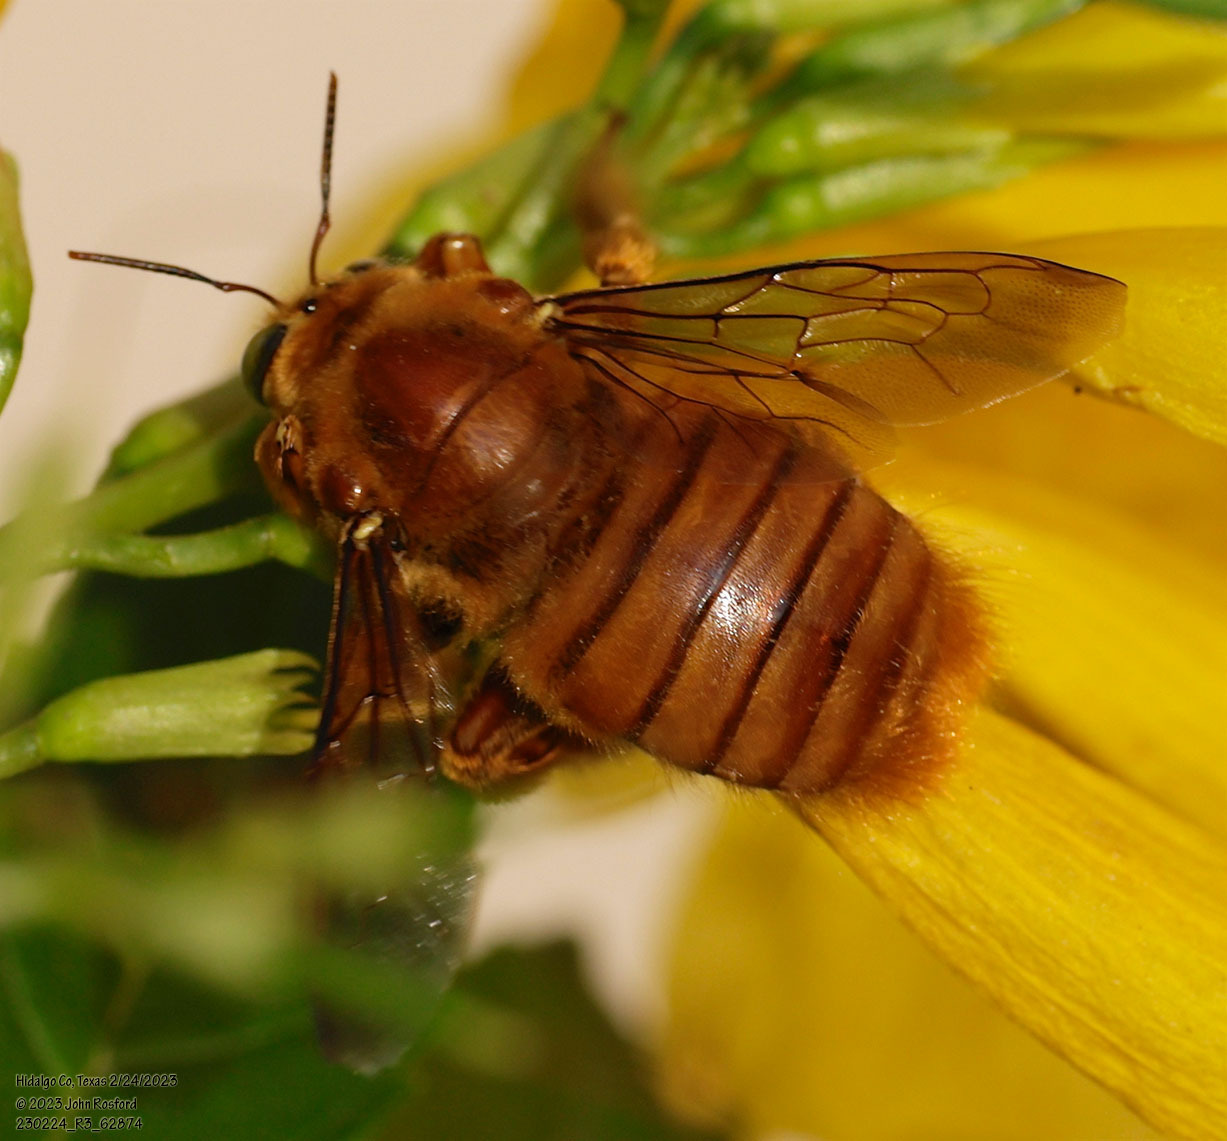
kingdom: Animalia
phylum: Arthropoda
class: Insecta
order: Hymenoptera
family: Apidae
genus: Xylocopa
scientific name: Xylocopa griswoldi
